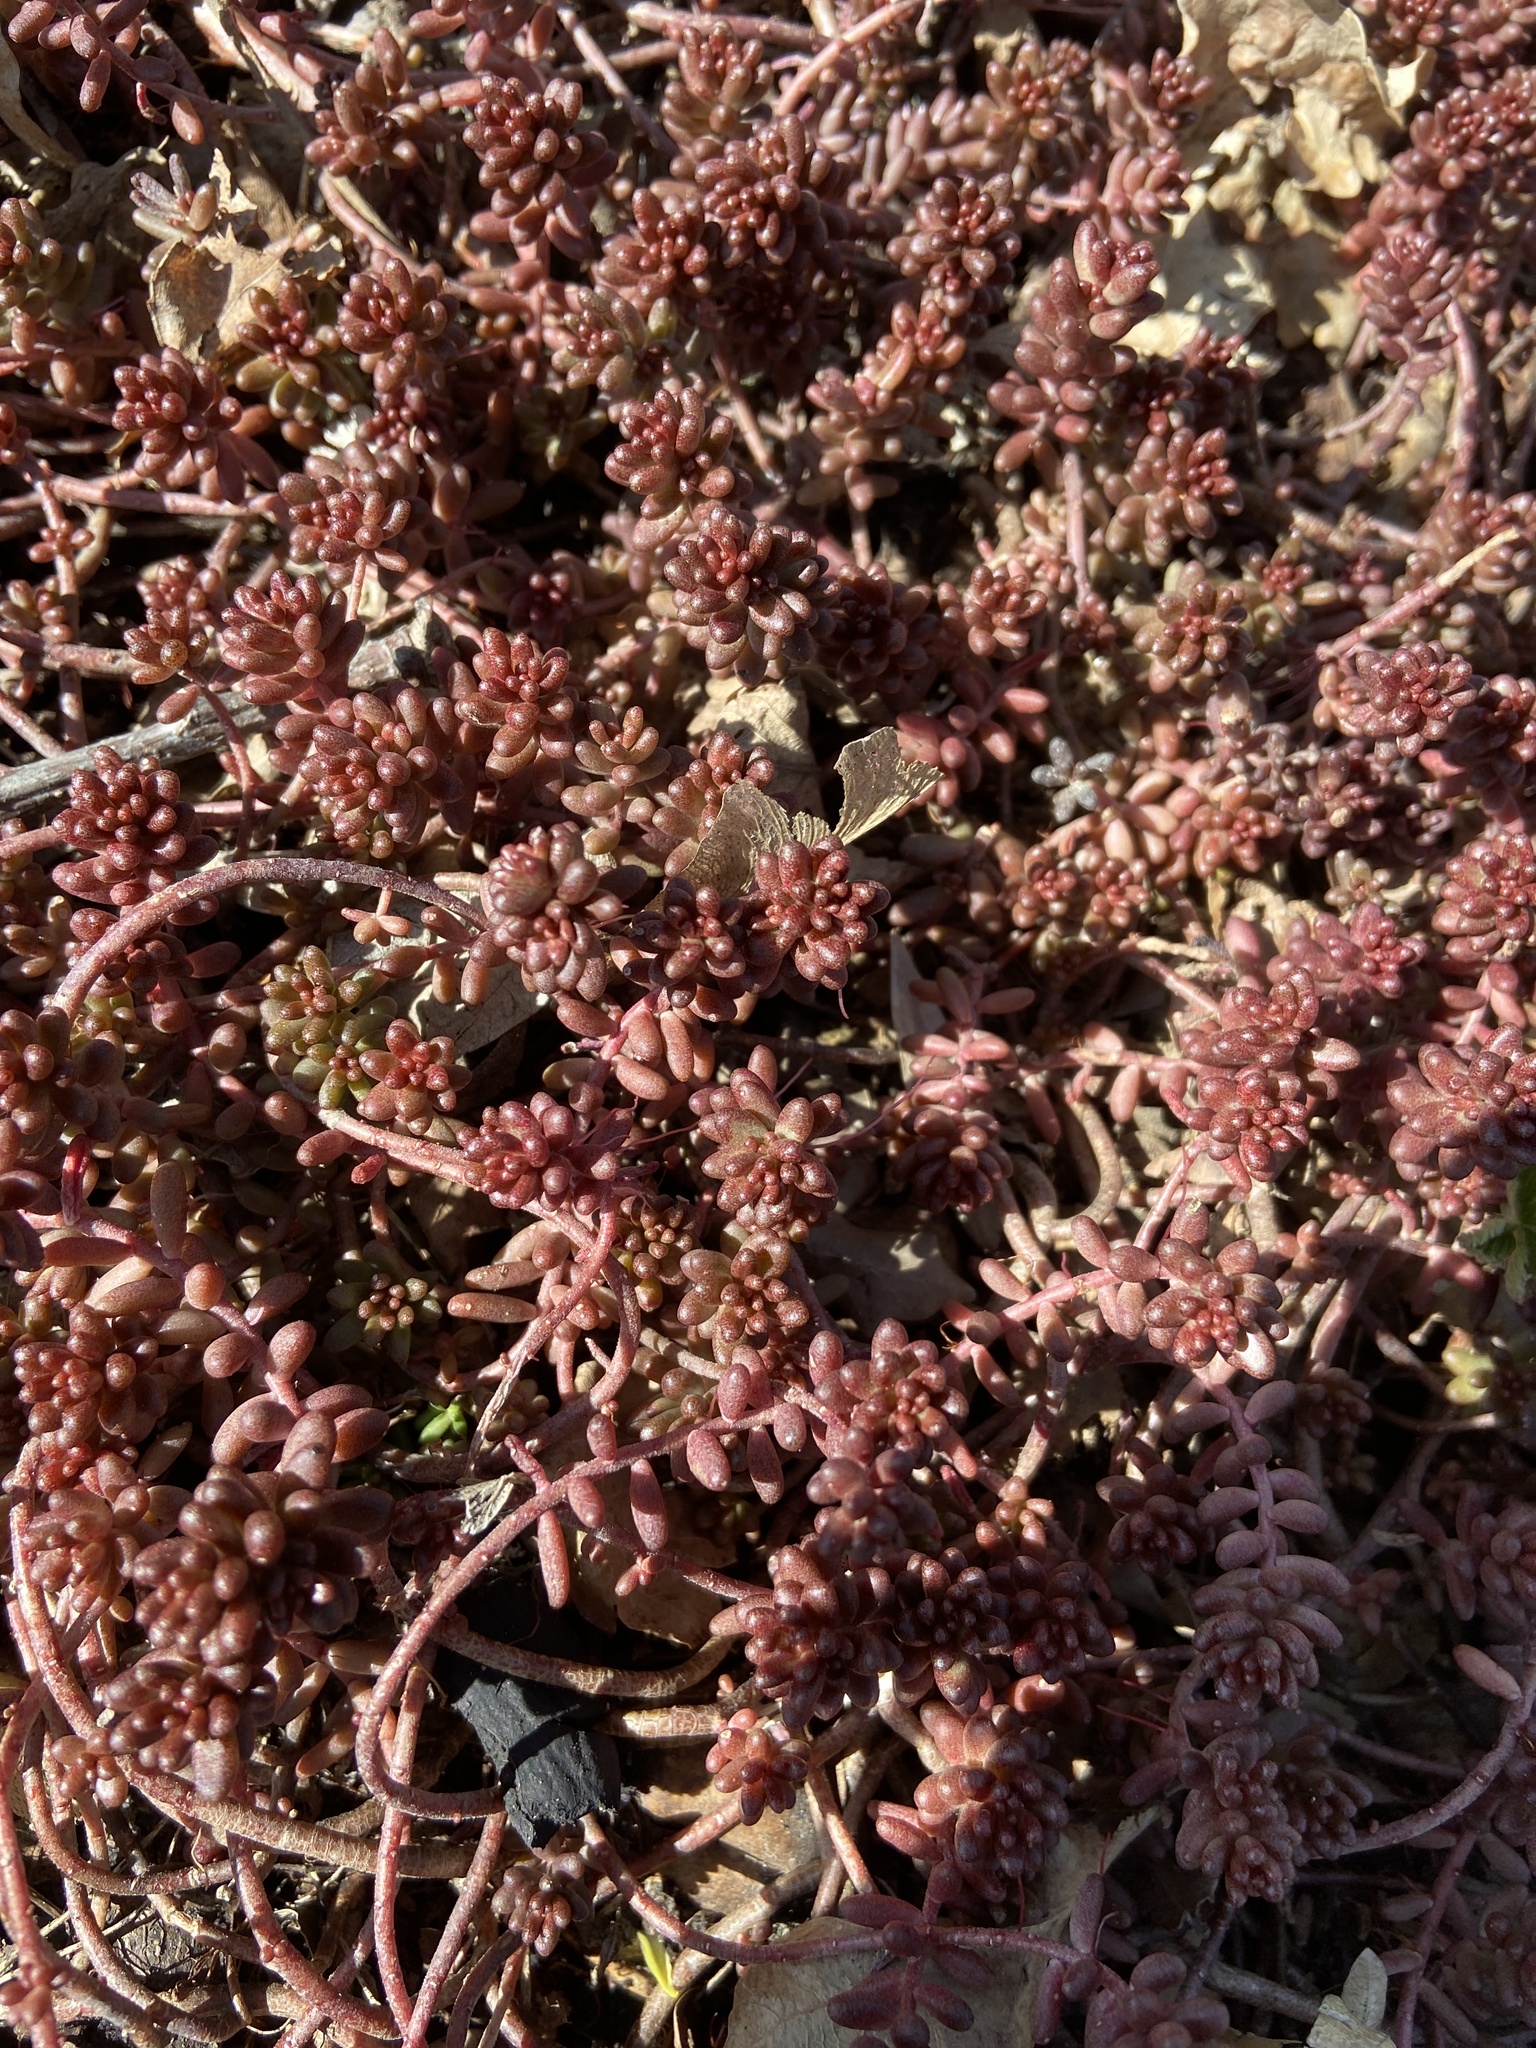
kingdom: Plantae
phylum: Tracheophyta
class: Magnoliopsida
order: Saxifragales
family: Crassulaceae
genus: Sedum
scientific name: Sedum album
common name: White stonecrop
